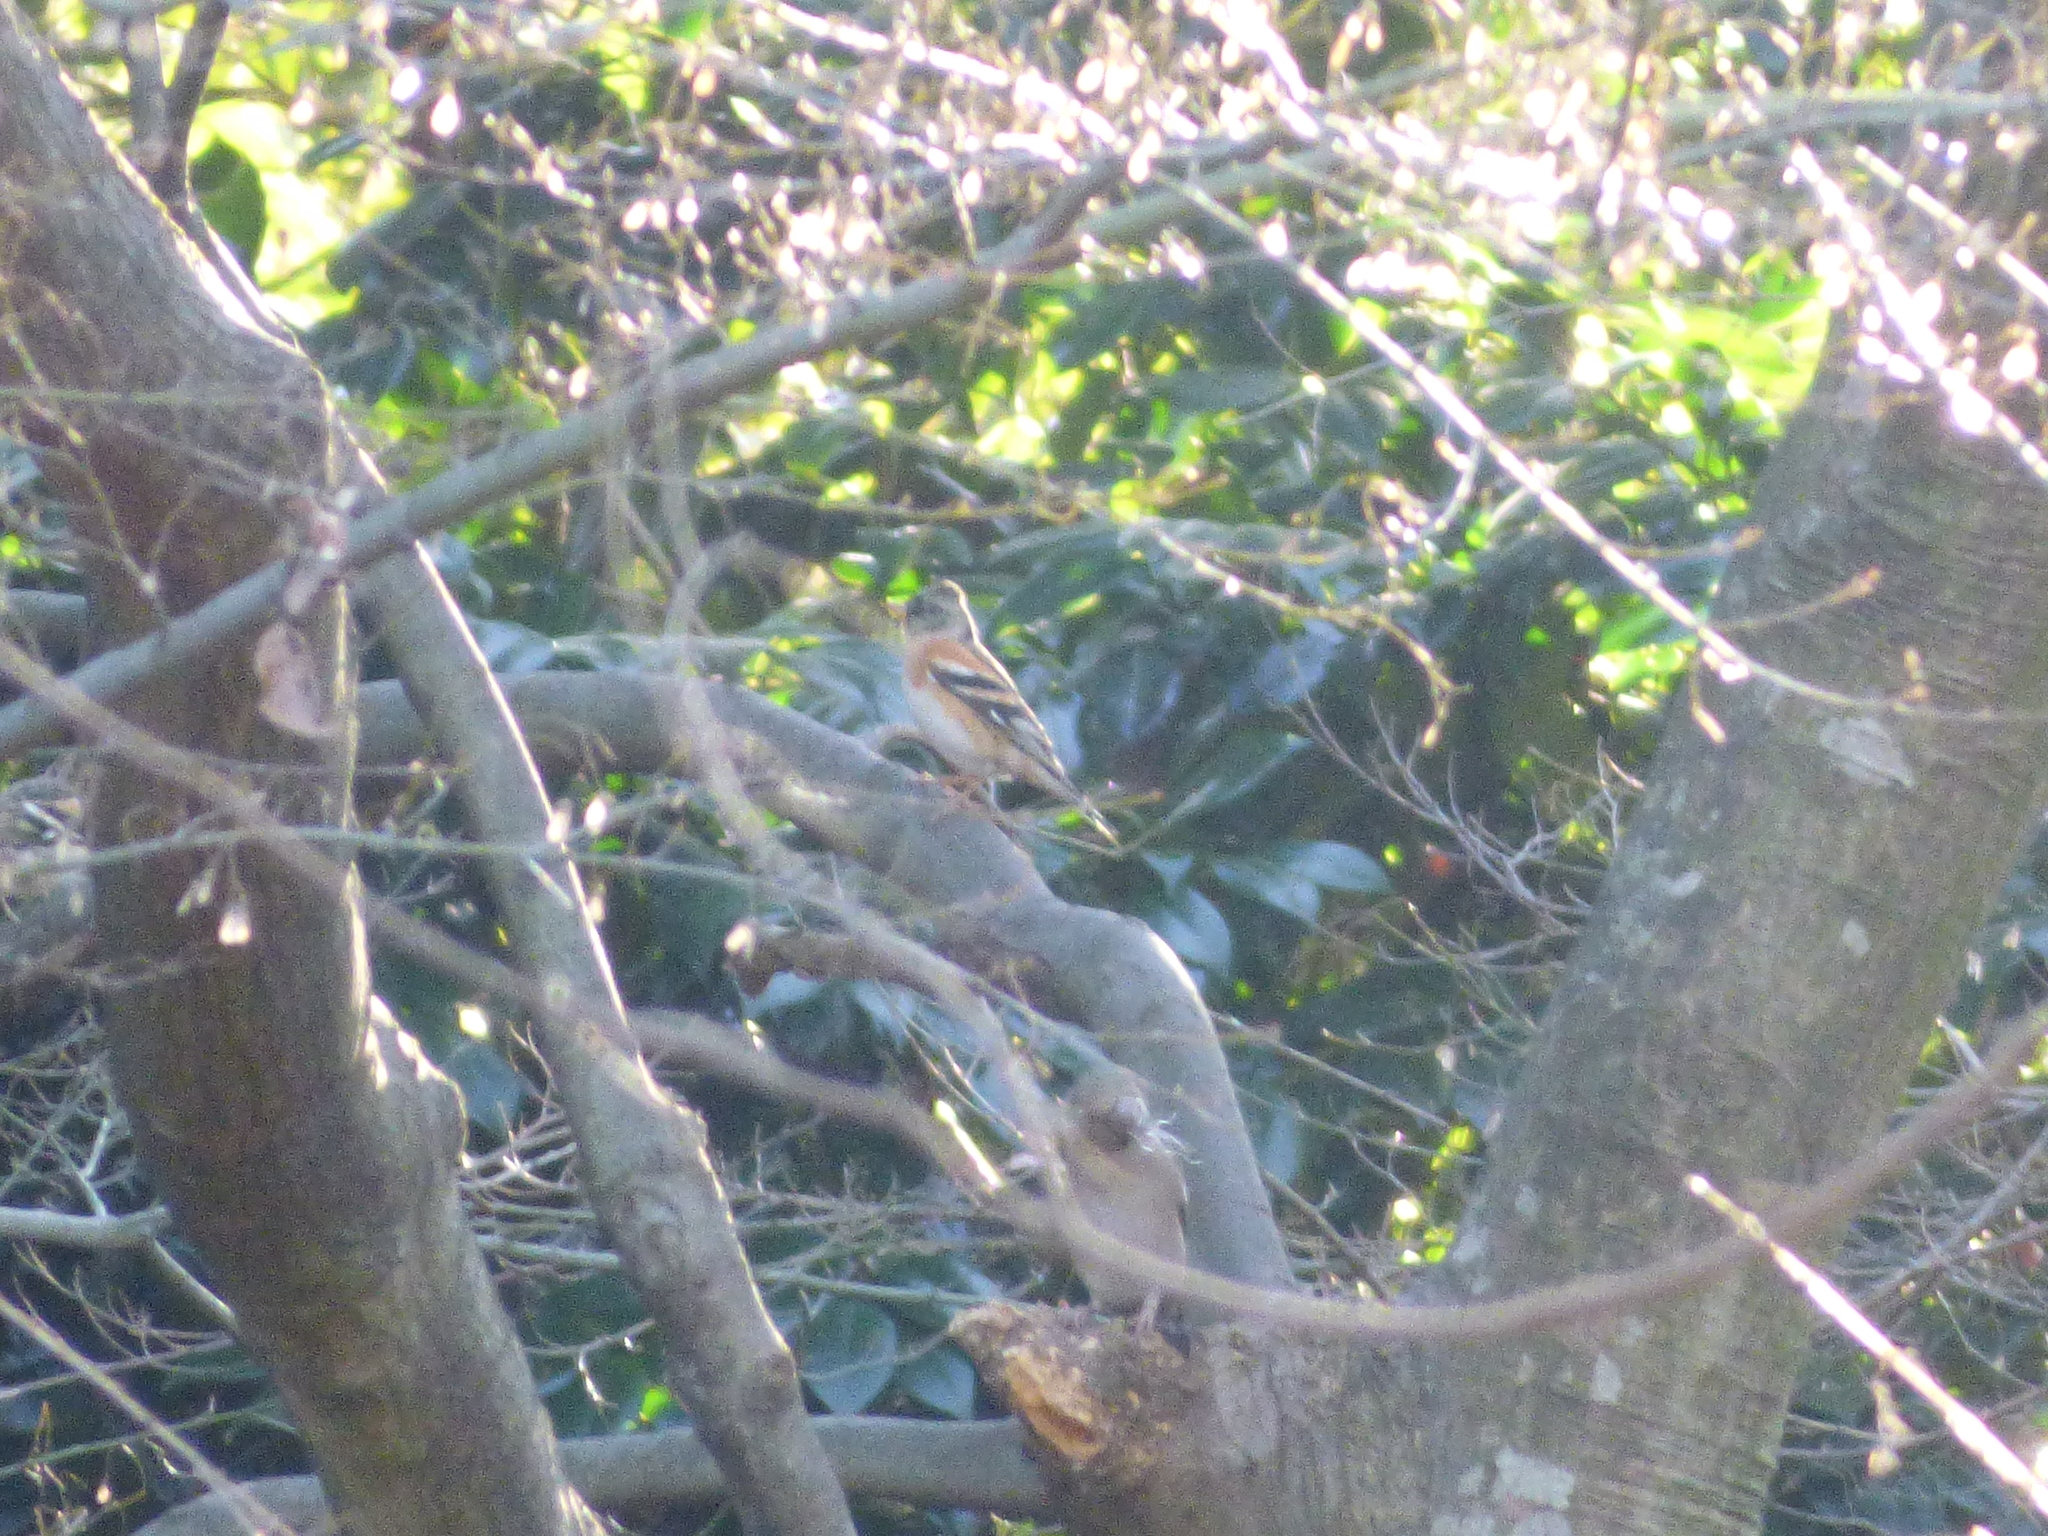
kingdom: Animalia
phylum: Chordata
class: Aves
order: Passeriformes
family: Fringillidae
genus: Fringilla
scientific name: Fringilla montifringilla
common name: Brambling
